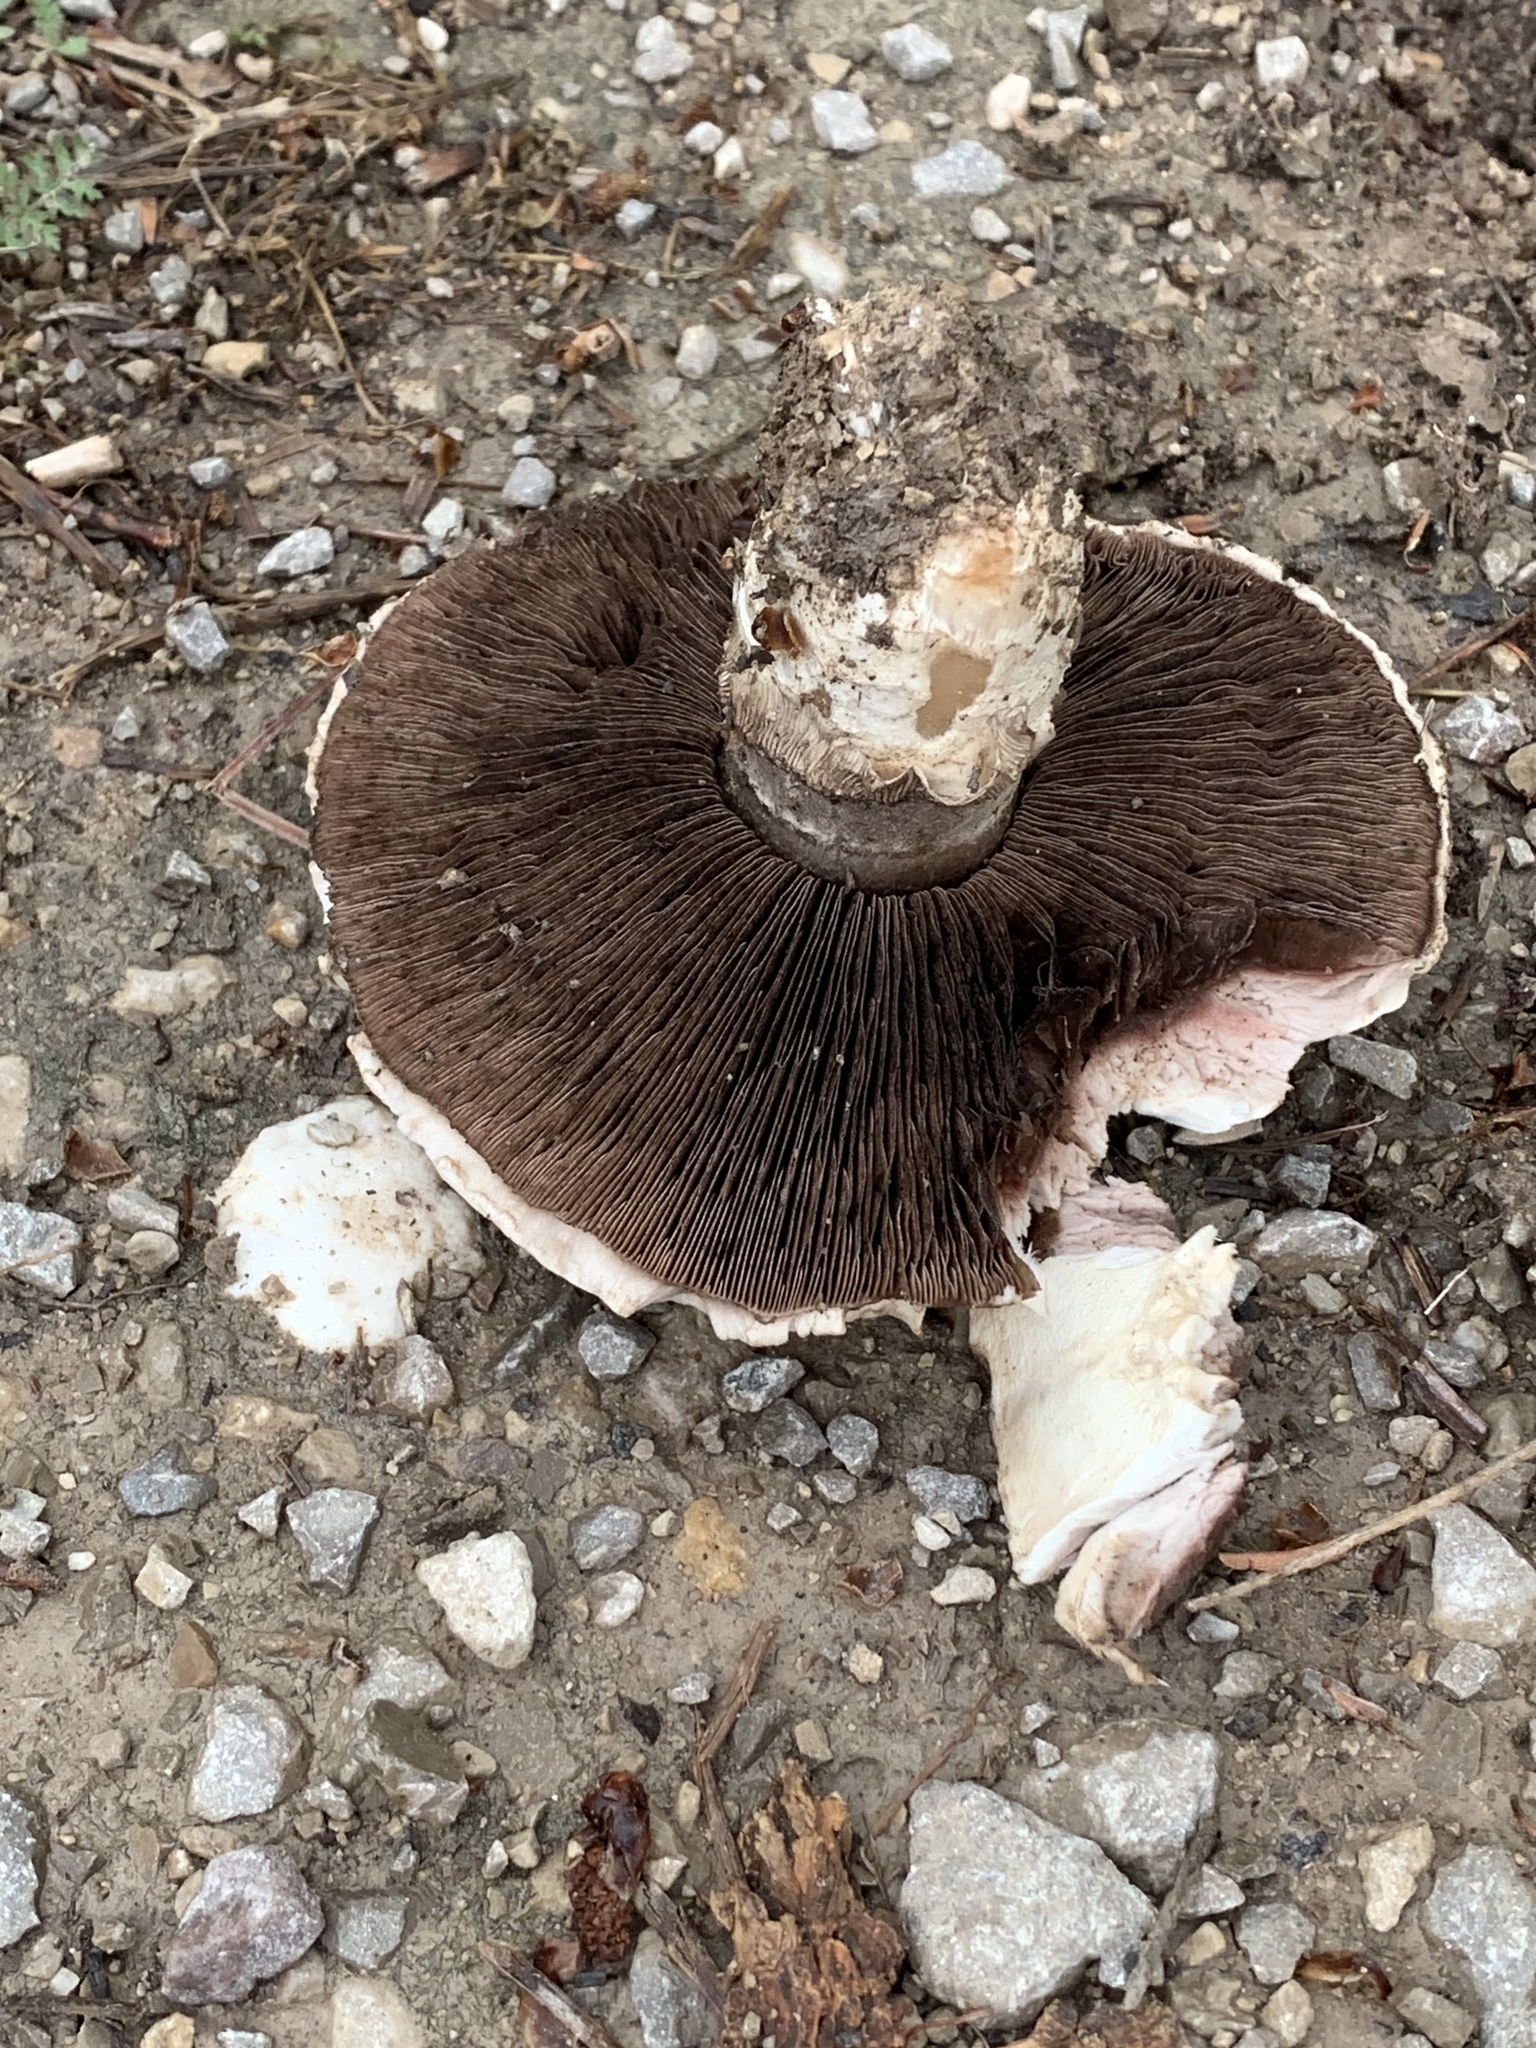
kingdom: Fungi
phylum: Basidiomycota
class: Agaricomycetes
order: Agaricales
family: Agaricaceae
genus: Agaricus
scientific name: Agaricus bitorquis
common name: Pavement mushroom
